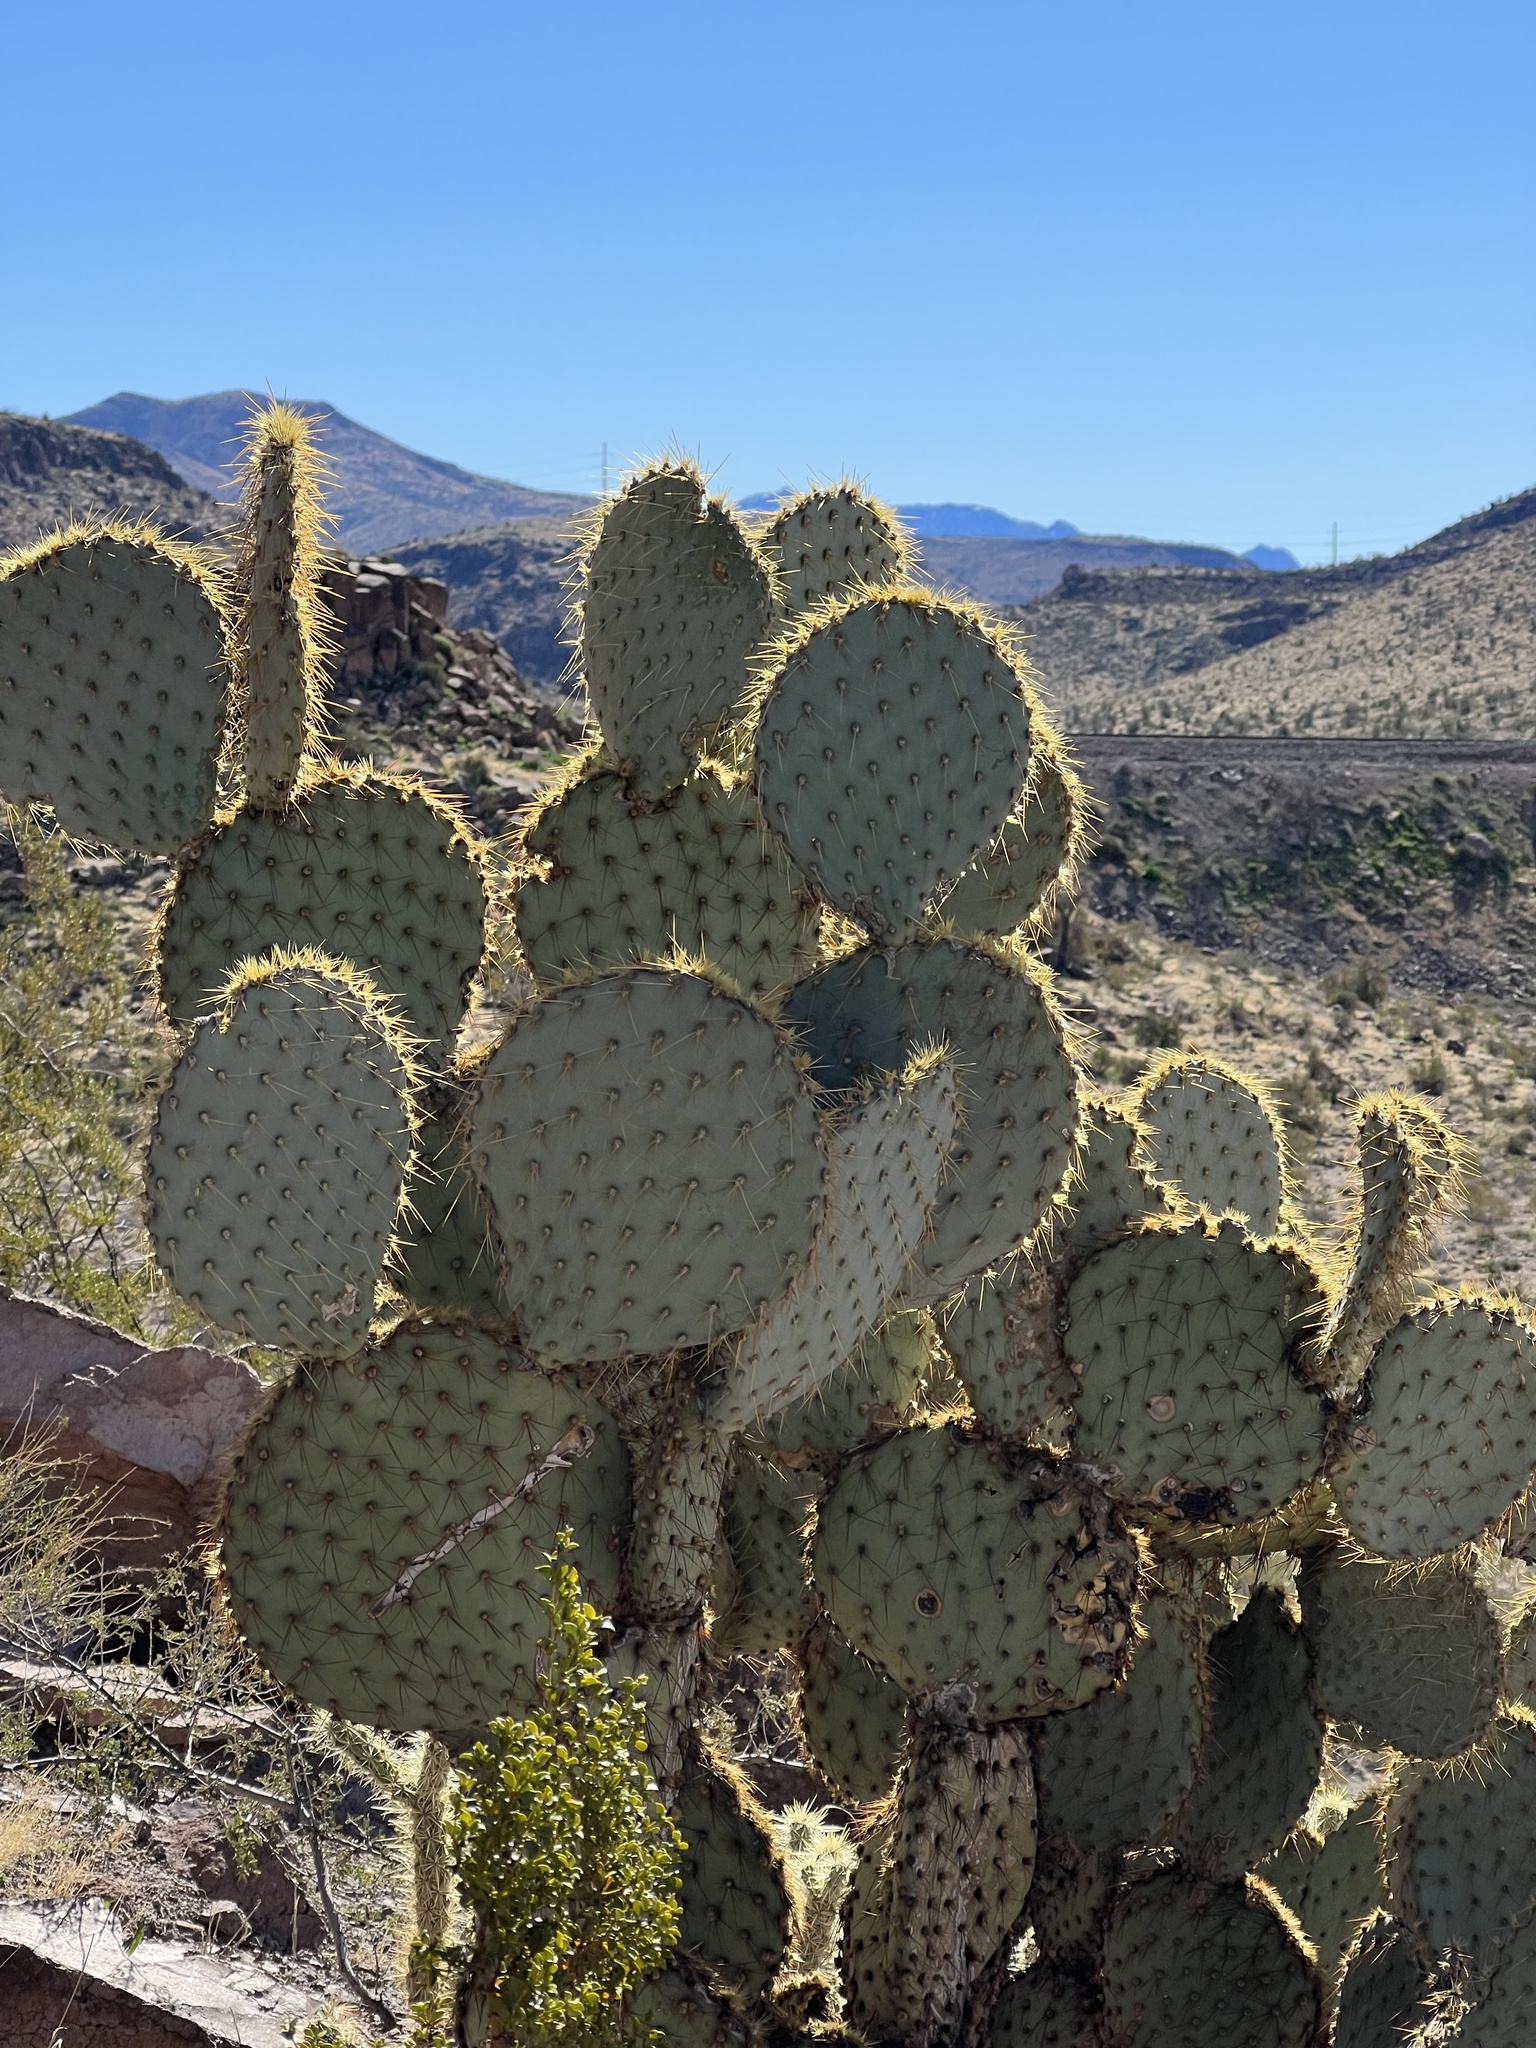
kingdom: Plantae
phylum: Tracheophyta
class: Magnoliopsida
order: Caryophyllales
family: Cactaceae
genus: Opuntia
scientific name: Opuntia chlorotica
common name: Dollar-joint prickly-pear
